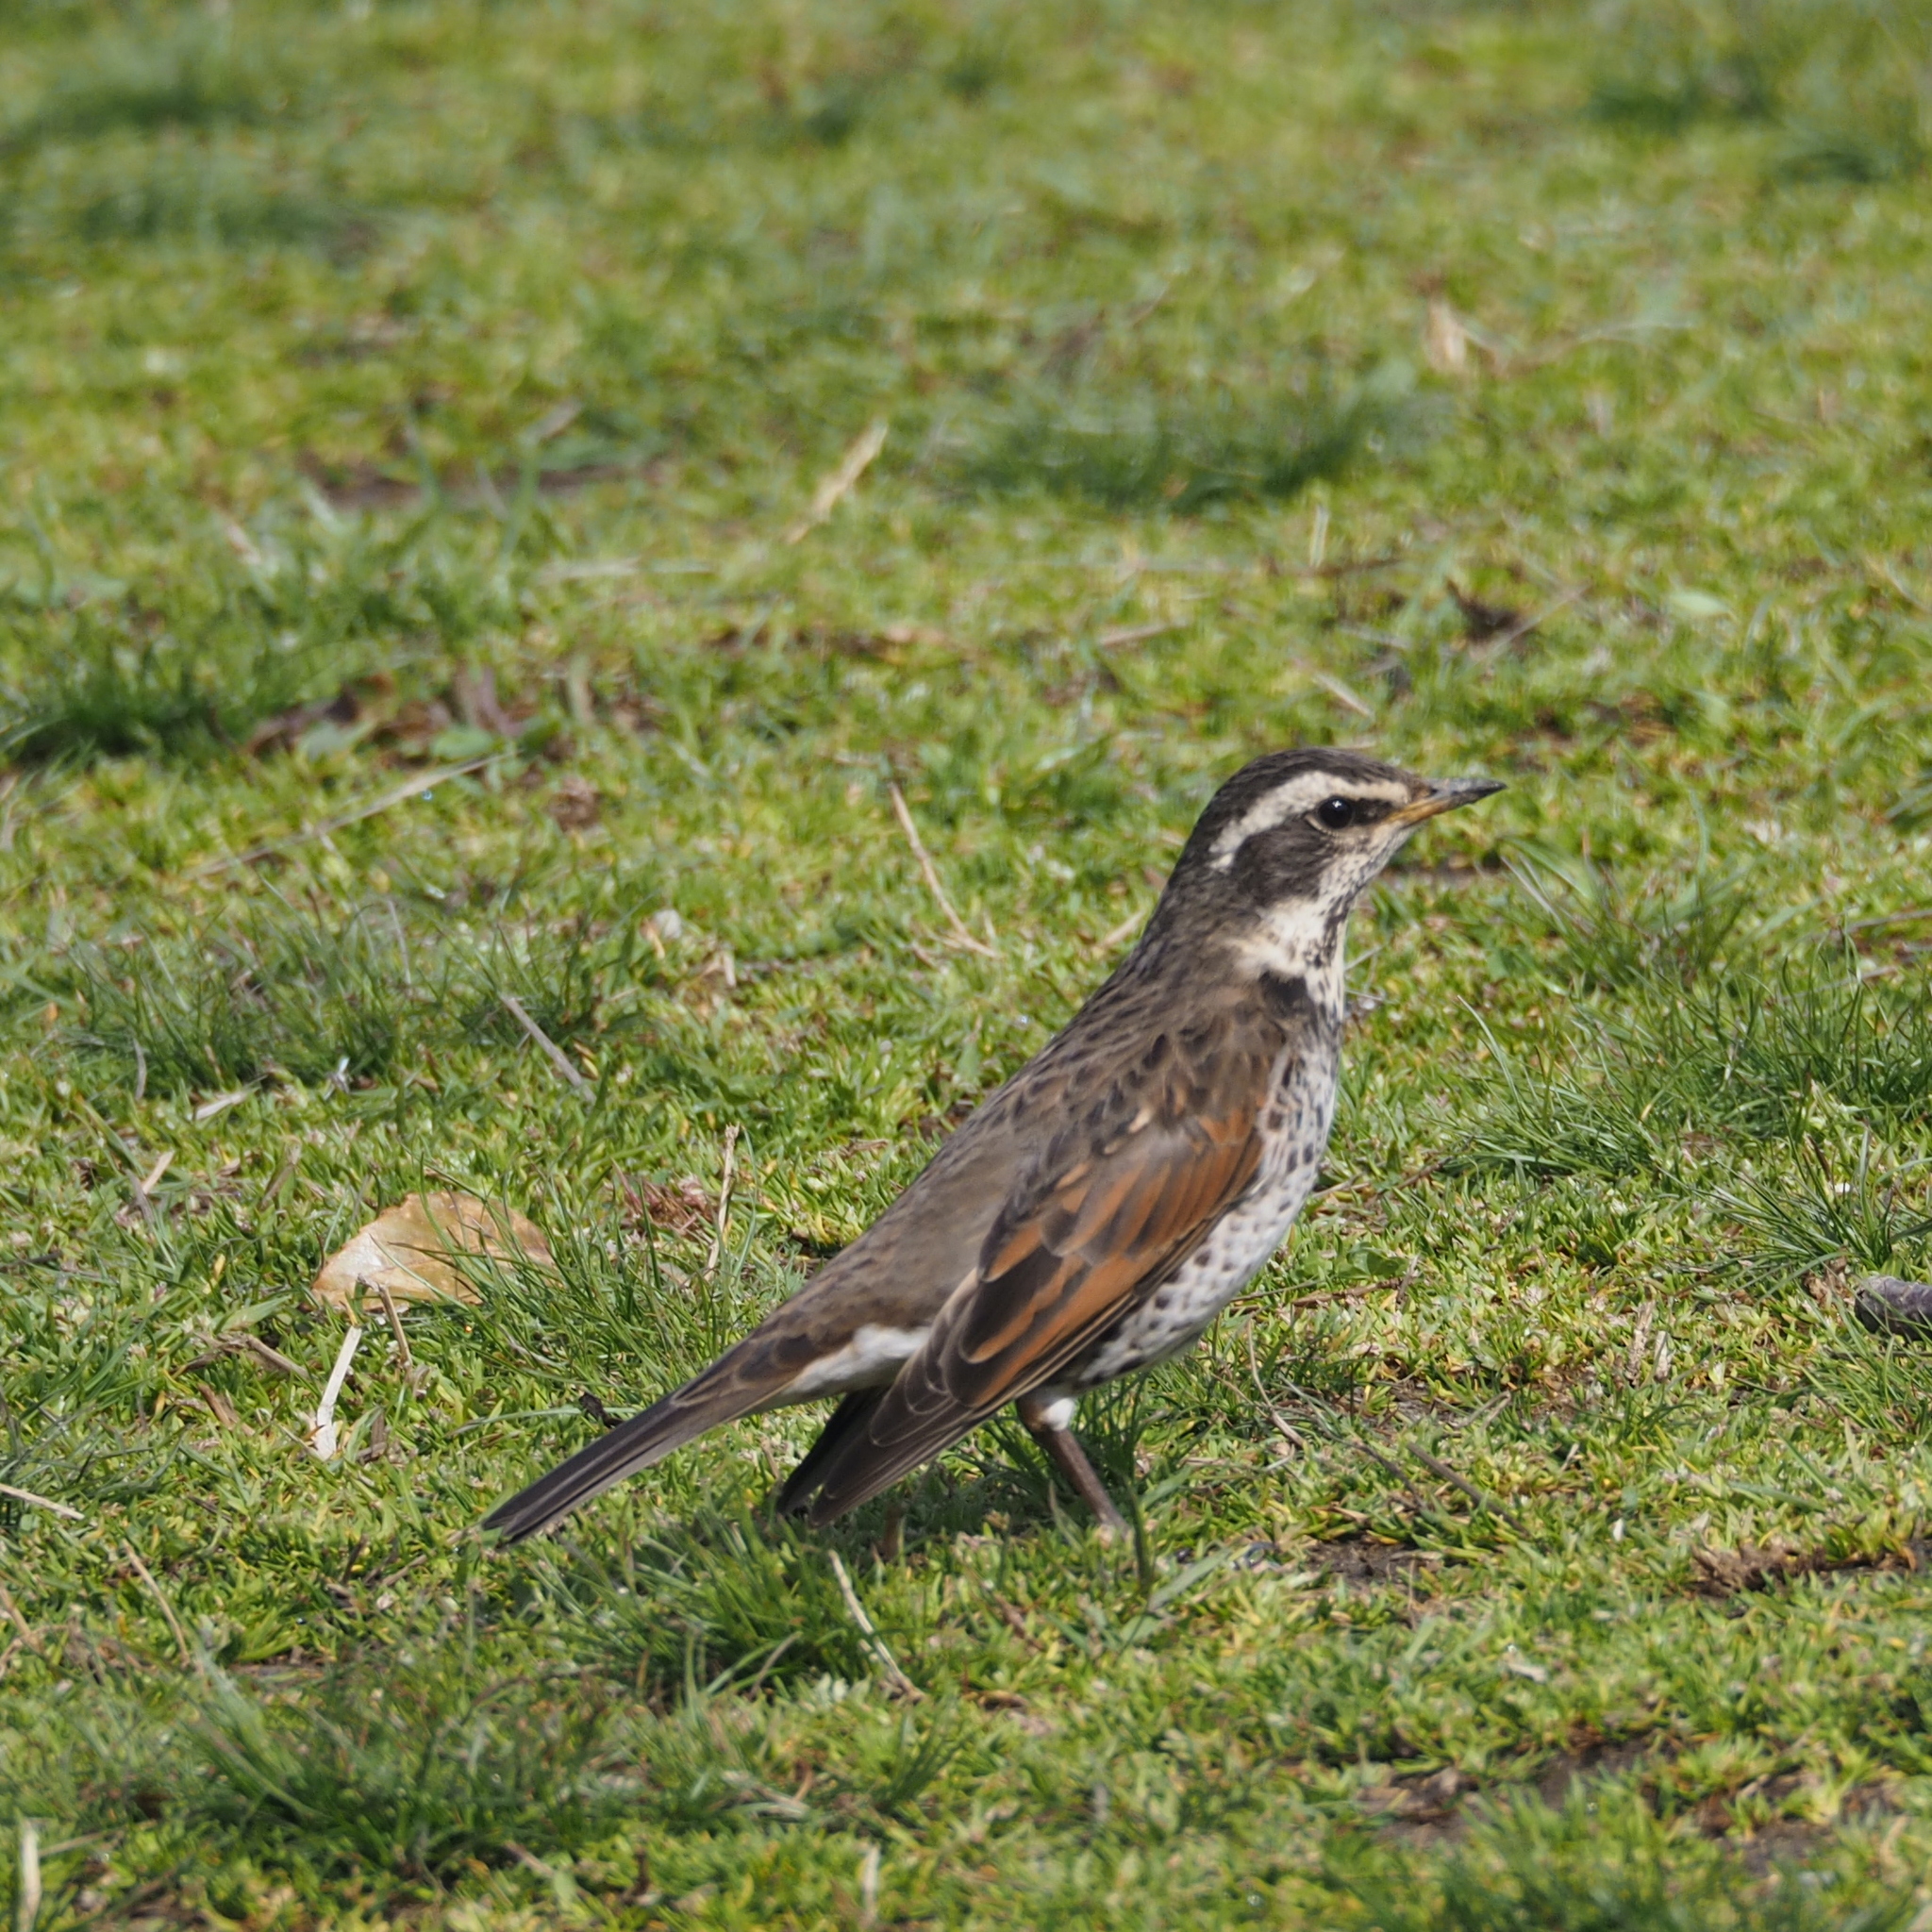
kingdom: Animalia
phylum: Chordata
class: Aves
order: Passeriformes
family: Turdidae
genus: Turdus
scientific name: Turdus eunomus
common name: Dusky thrush
